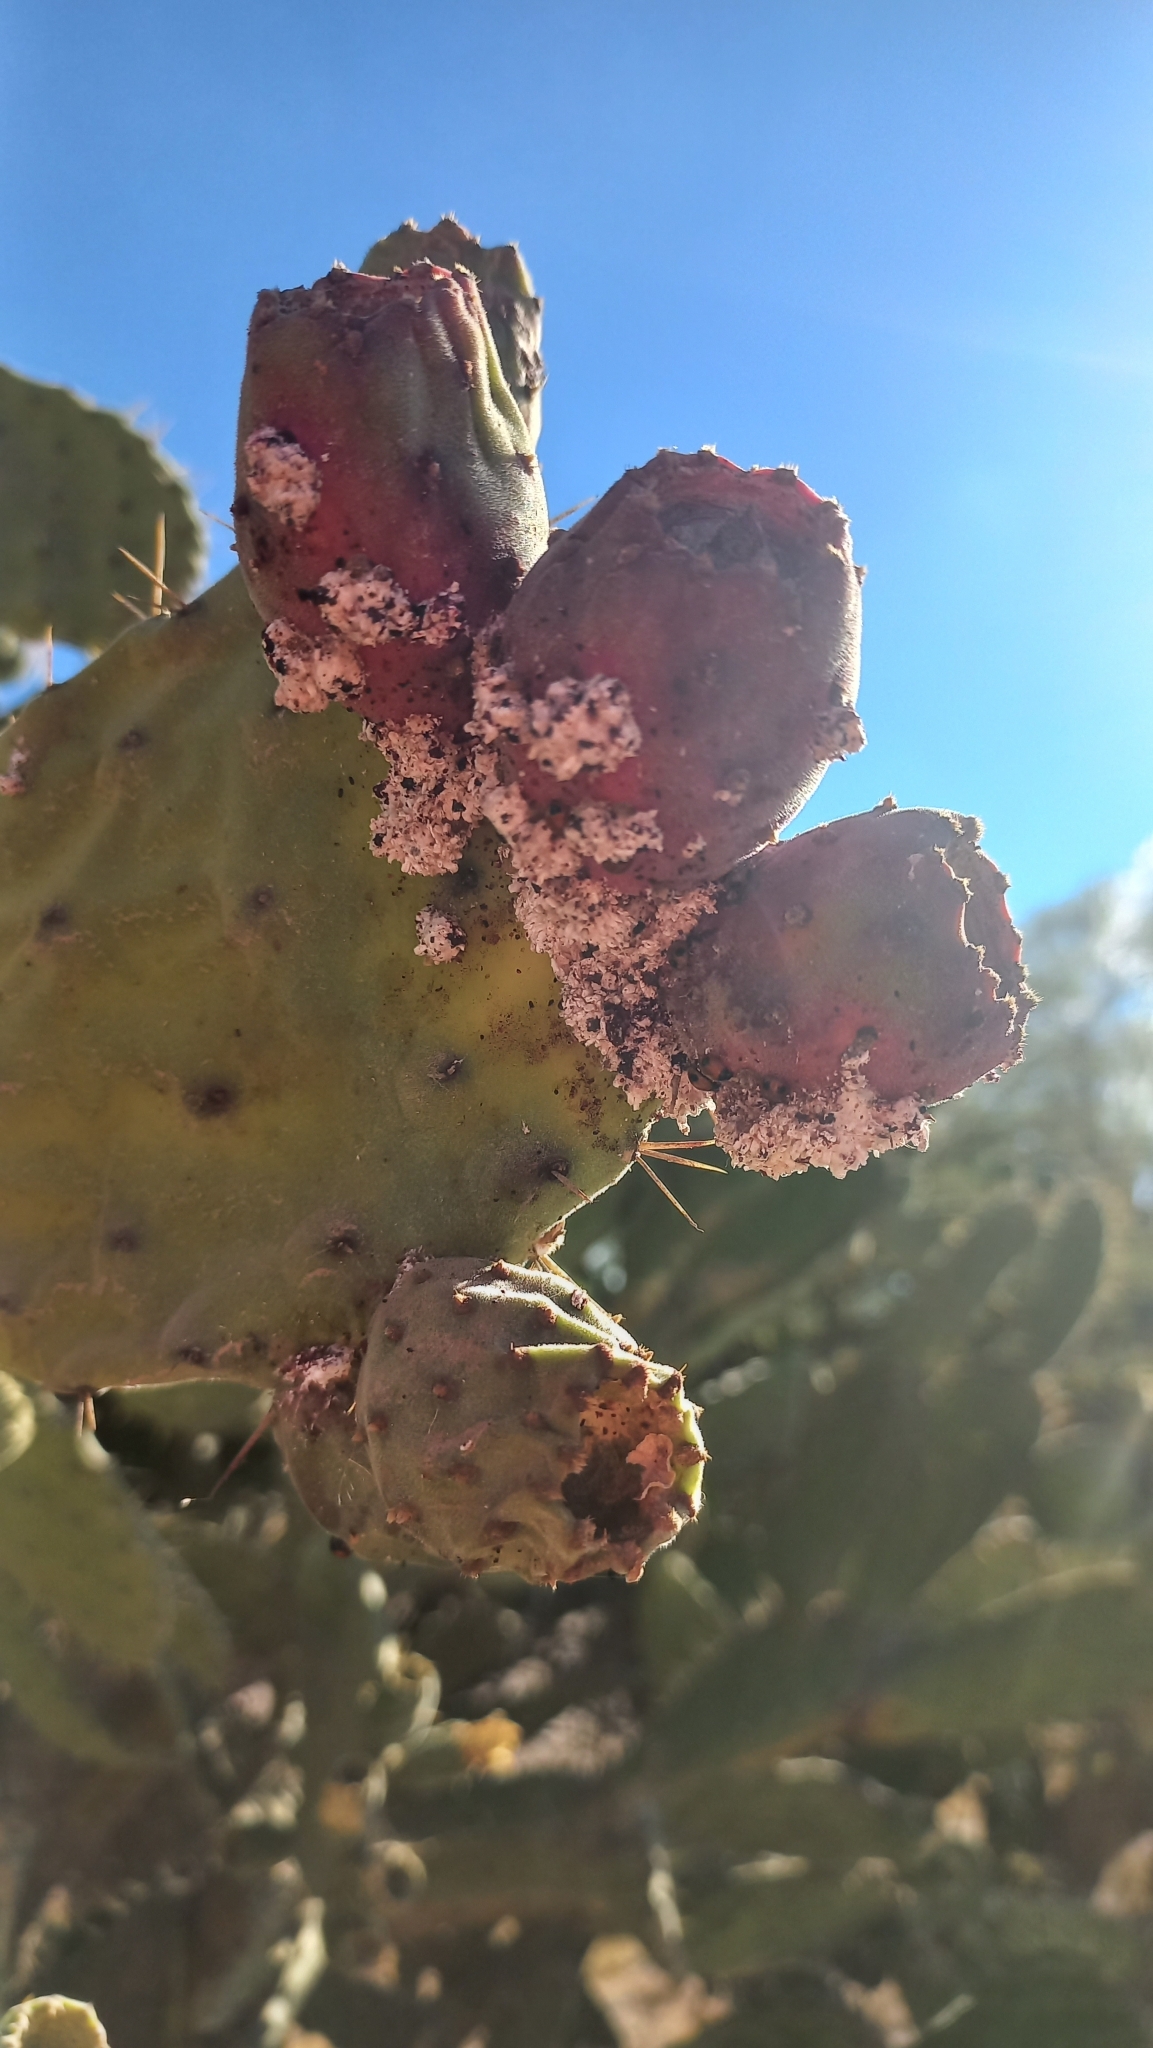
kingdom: Animalia
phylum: Arthropoda
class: Insecta
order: Hemiptera
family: Dactylopiidae
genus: Dactylopius
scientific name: Dactylopius coccus
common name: Cochineal
